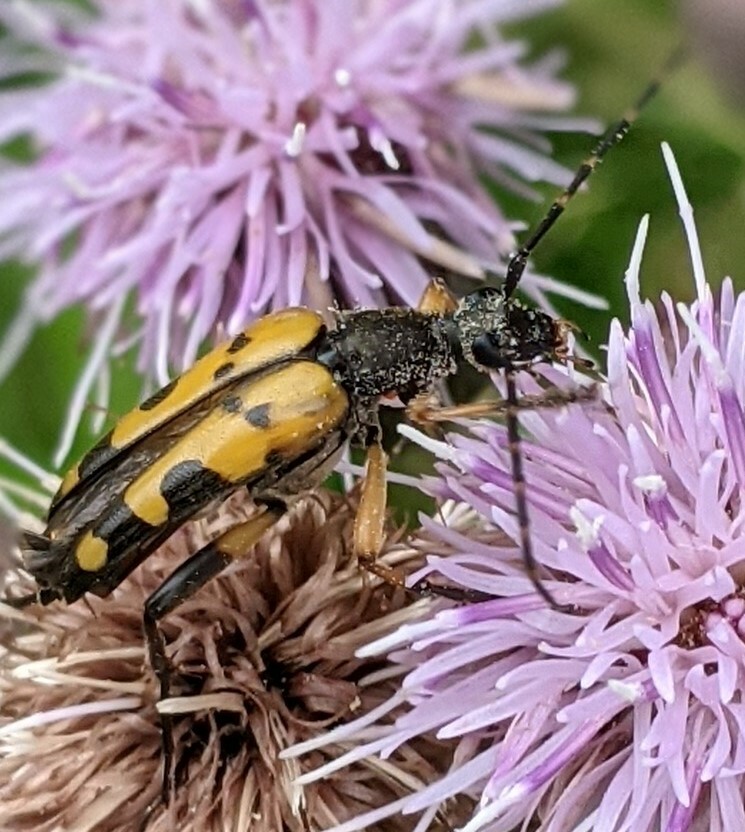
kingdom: Animalia
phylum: Arthropoda
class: Insecta
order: Coleoptera
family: Cerambycidae
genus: Rutpela
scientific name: Rutpela maculata
